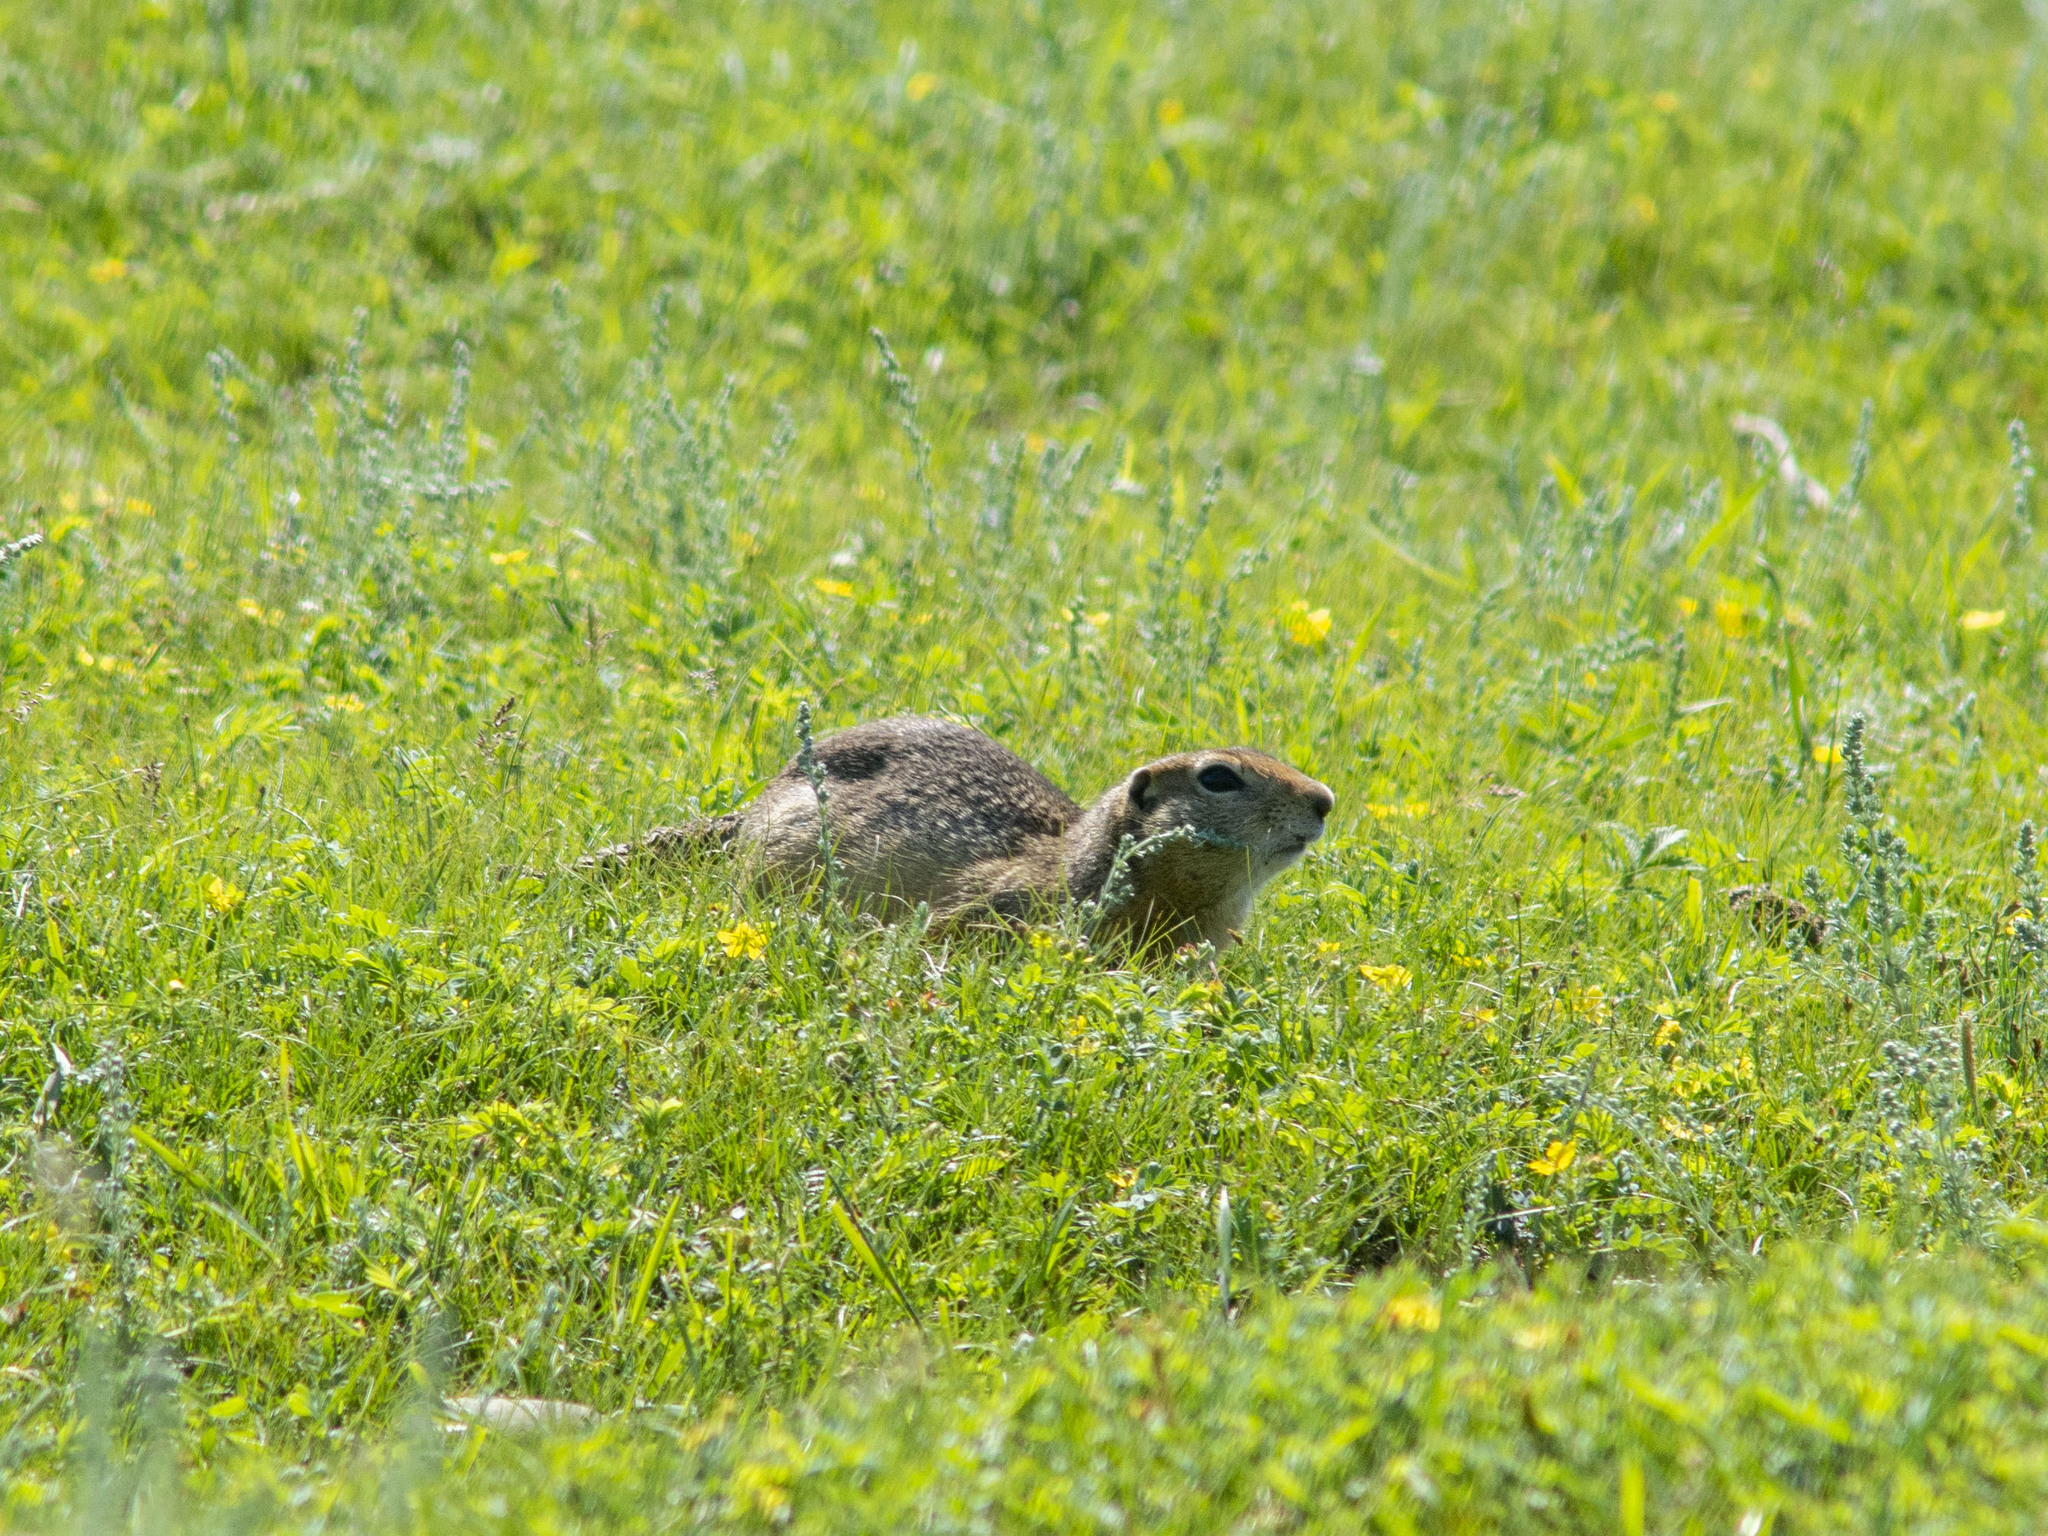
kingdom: Animalia
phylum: Chordata
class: Mammalia
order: Rodentia
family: Sciuridae
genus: Urocitellus
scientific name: Urocitellus undulatus
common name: Long-tailed ground squirrel
